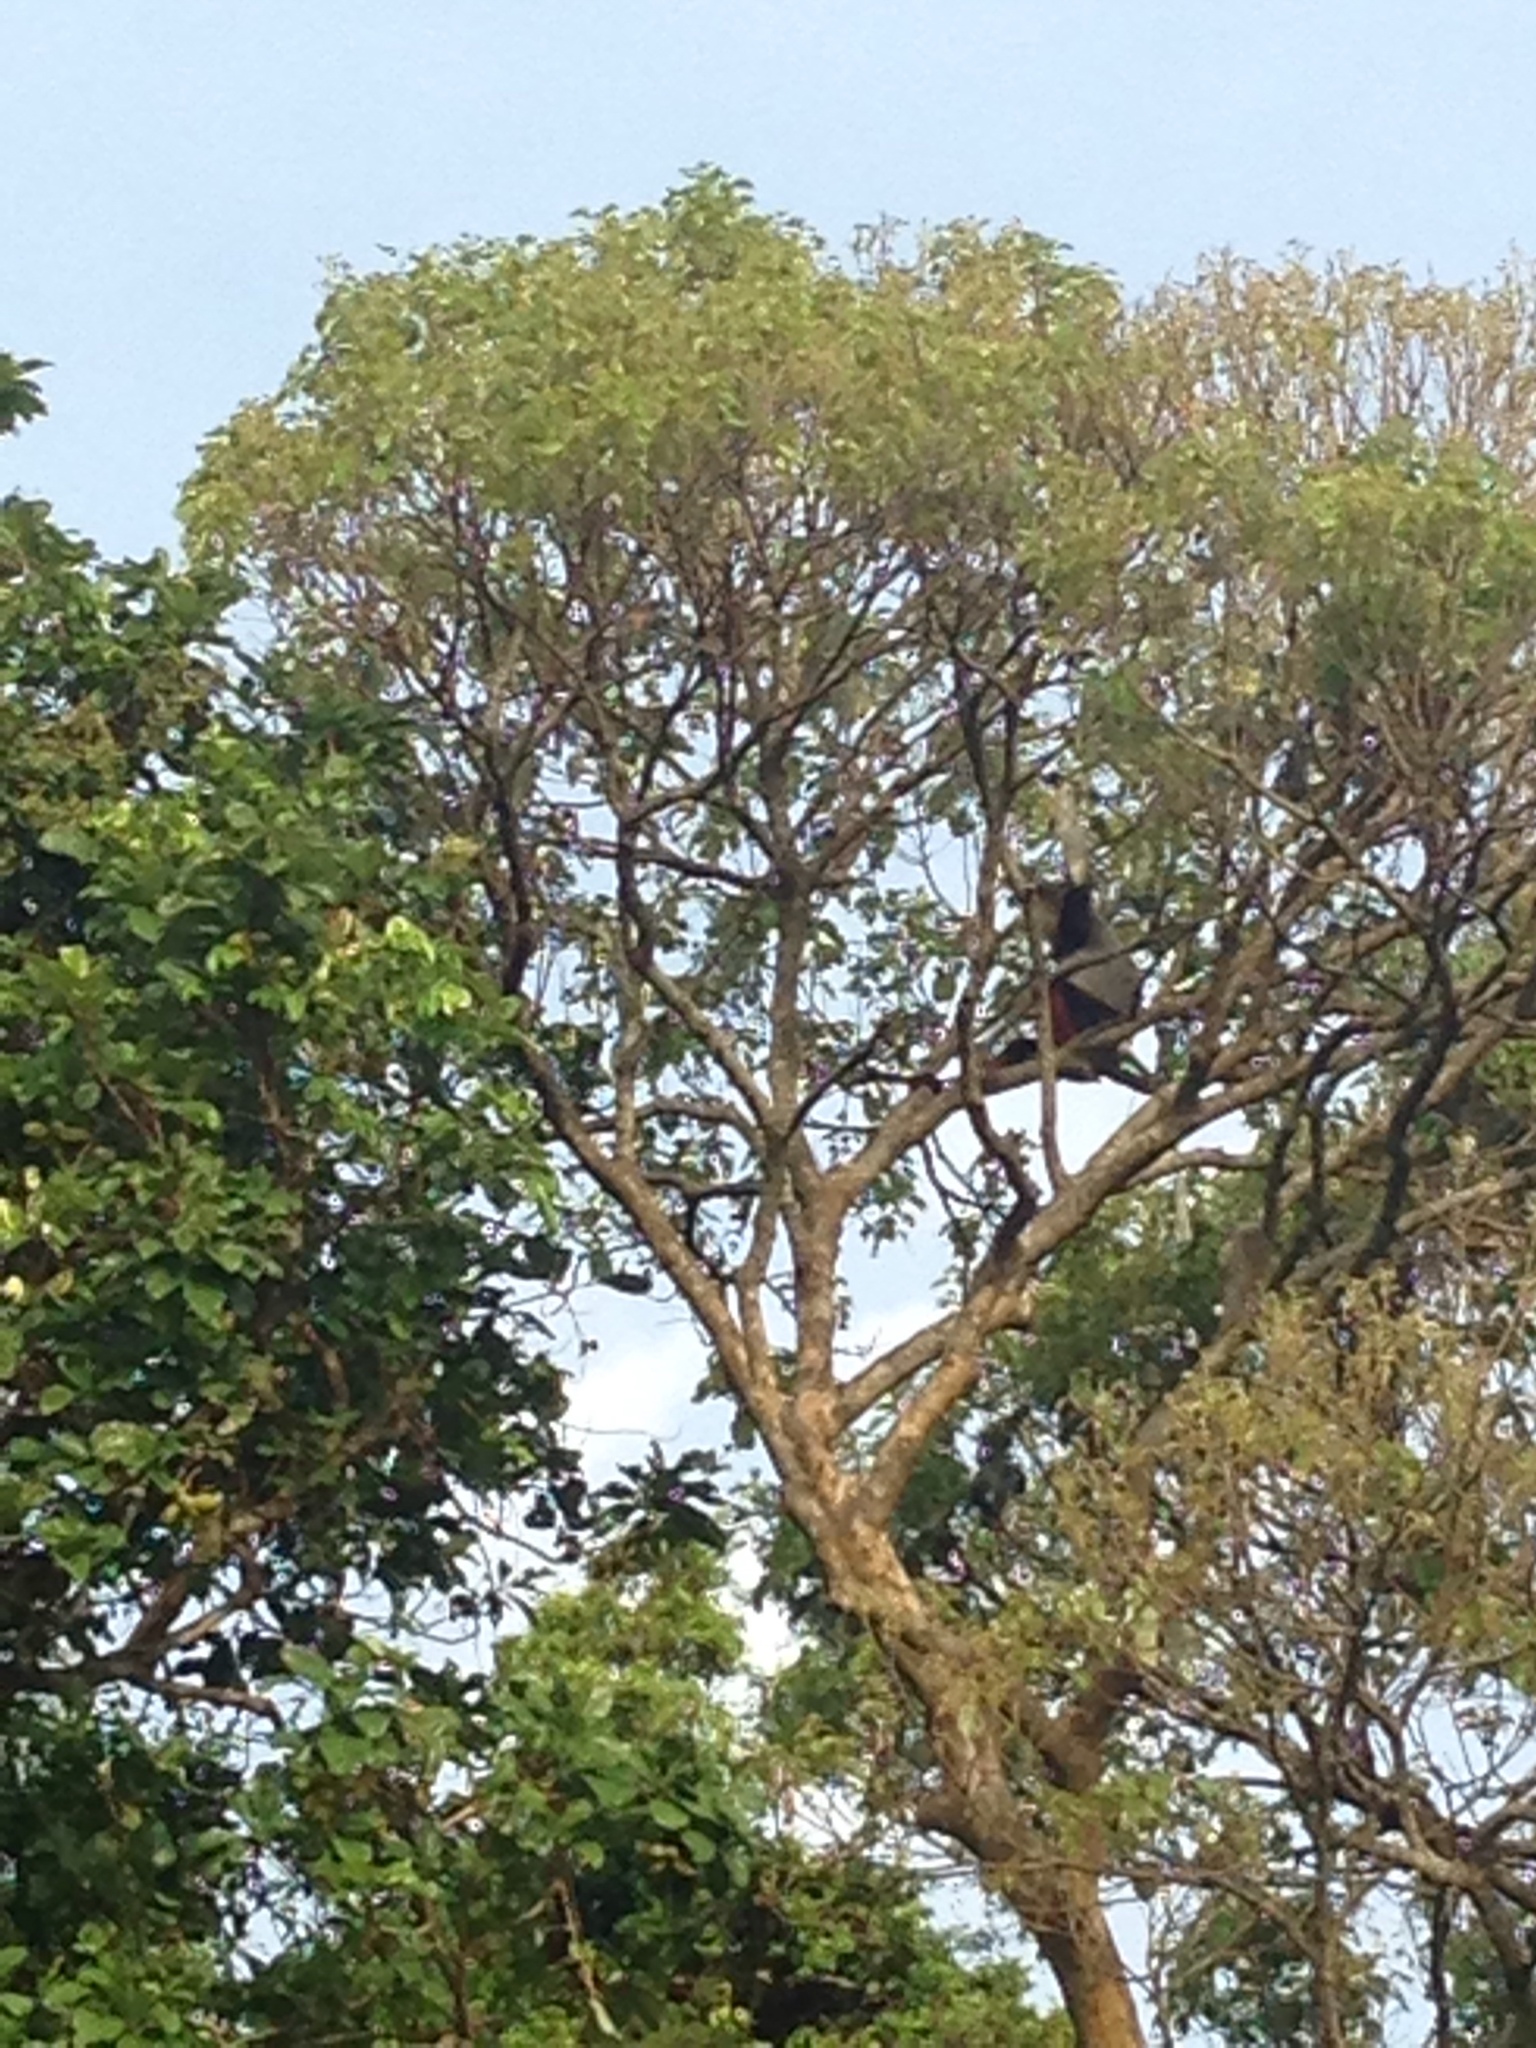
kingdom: Animalia
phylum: Chordata
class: Mammalia
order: Primates
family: Cercopithecidae
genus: Pygathrix
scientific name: Pygathrix nemaeus
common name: Red-shanked douc
